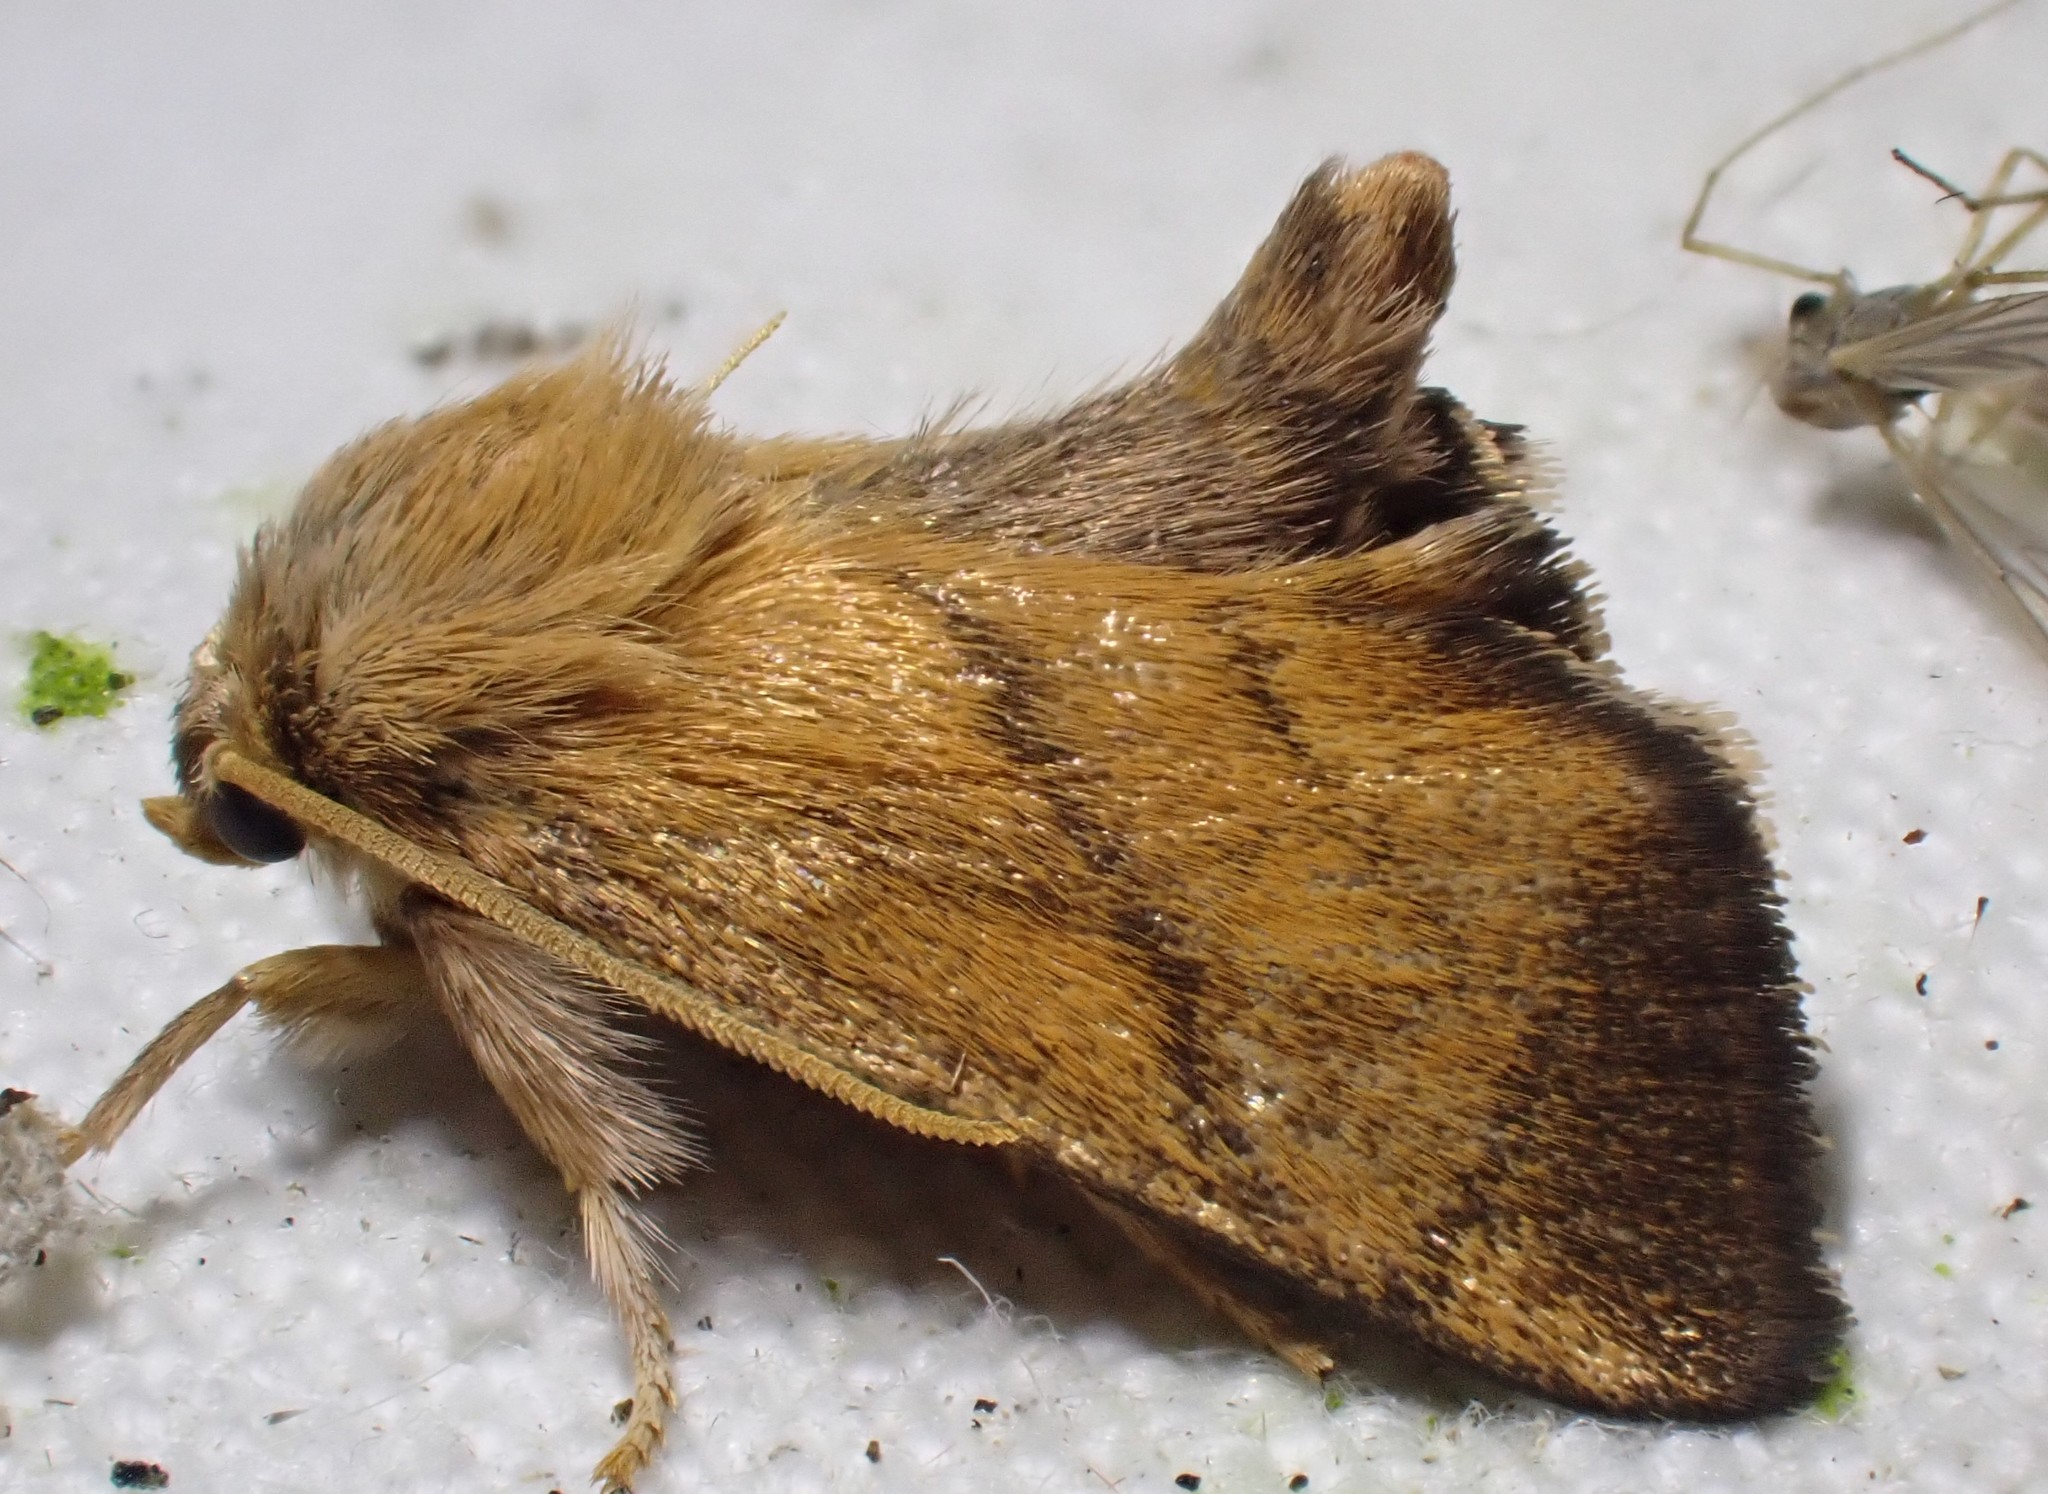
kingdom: Animalia
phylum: Arthropoda
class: Insecta
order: Lepidoptera
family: Limacodidae
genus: Apoda
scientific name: Apoda limacodes
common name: Festoon
